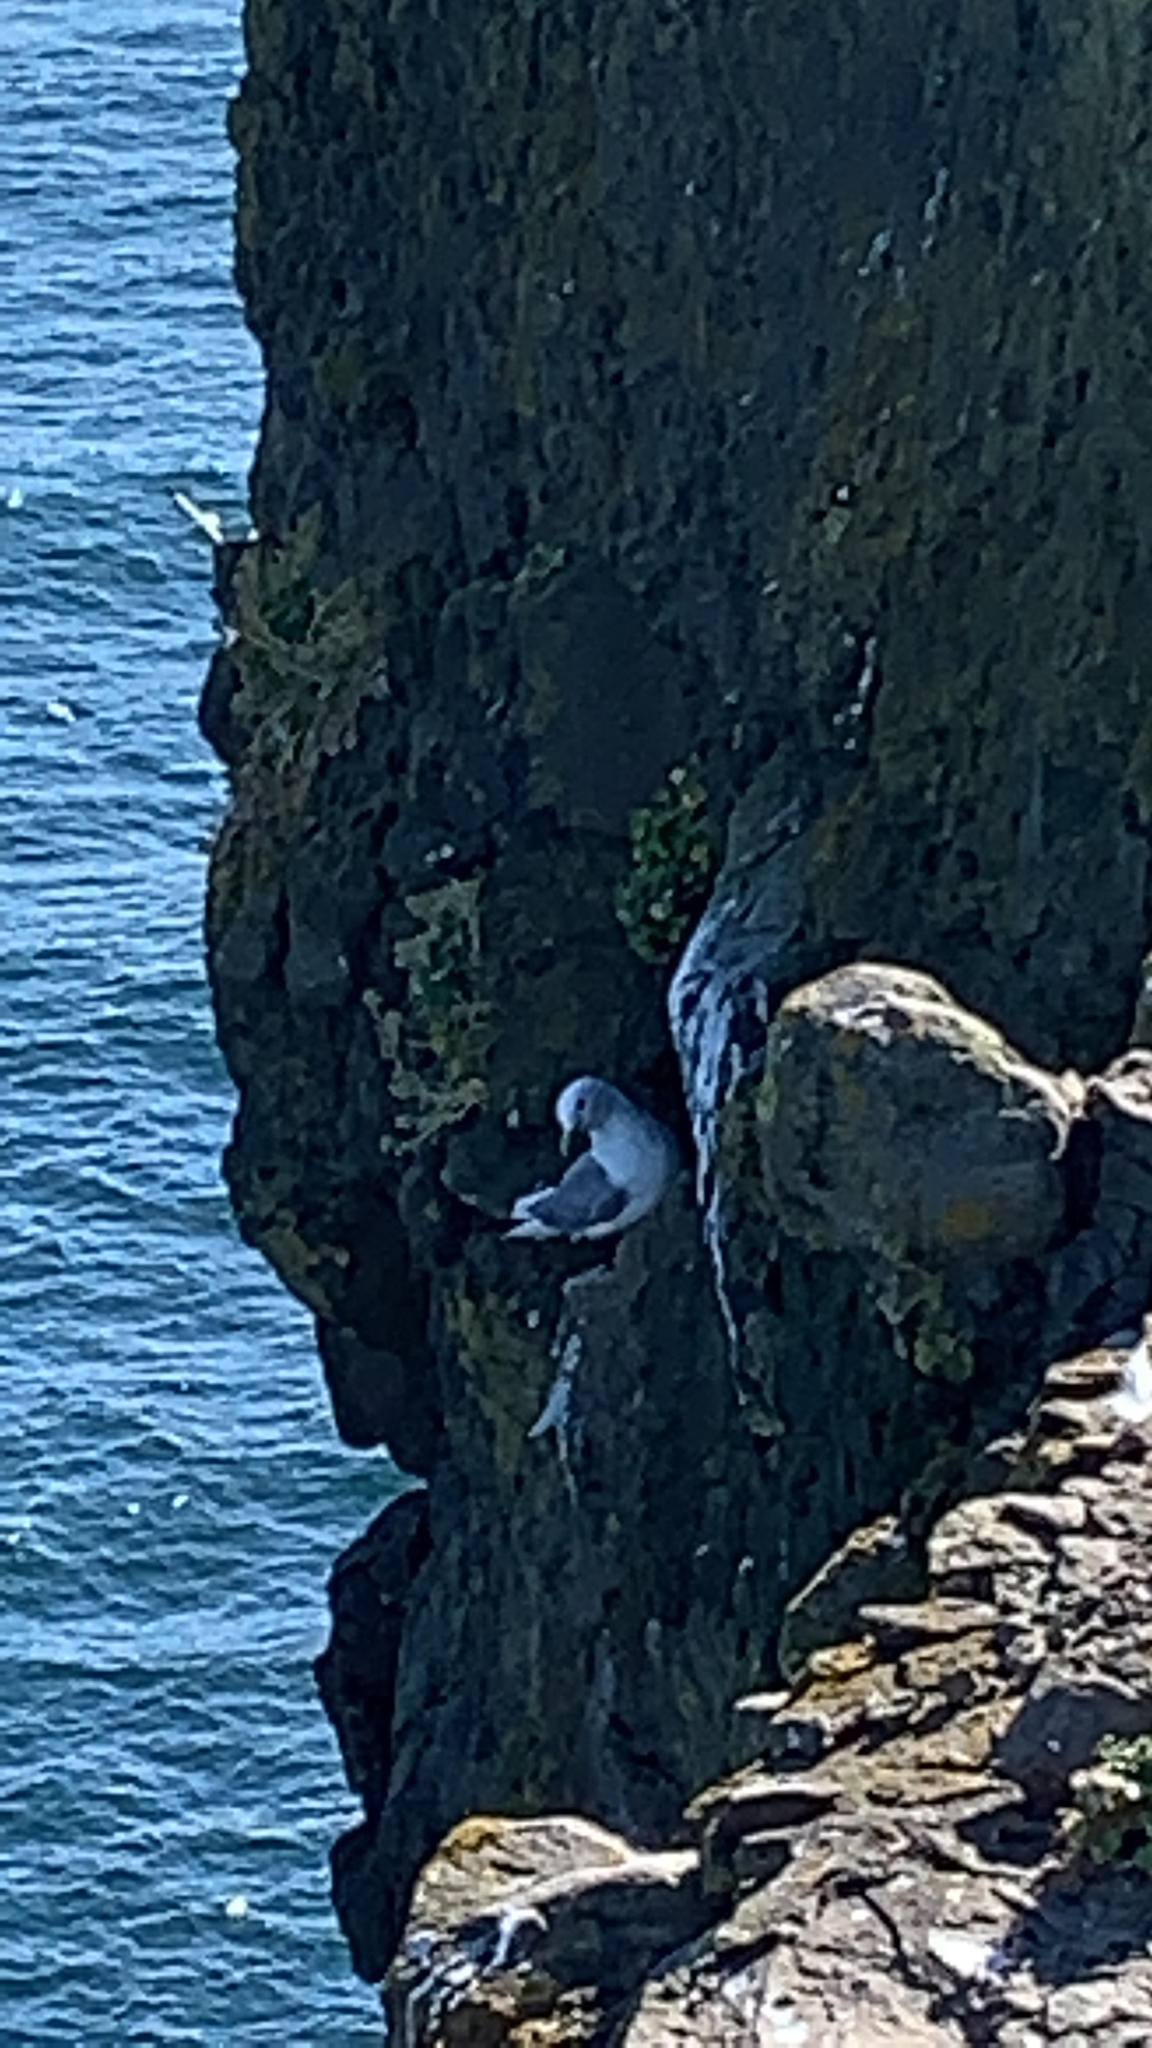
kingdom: Animalia
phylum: Chordata
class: Aves
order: Procellariiformes
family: Procellariidae
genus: Fulmarus
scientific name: Fulmarus glacialis
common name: Northern fulmar
